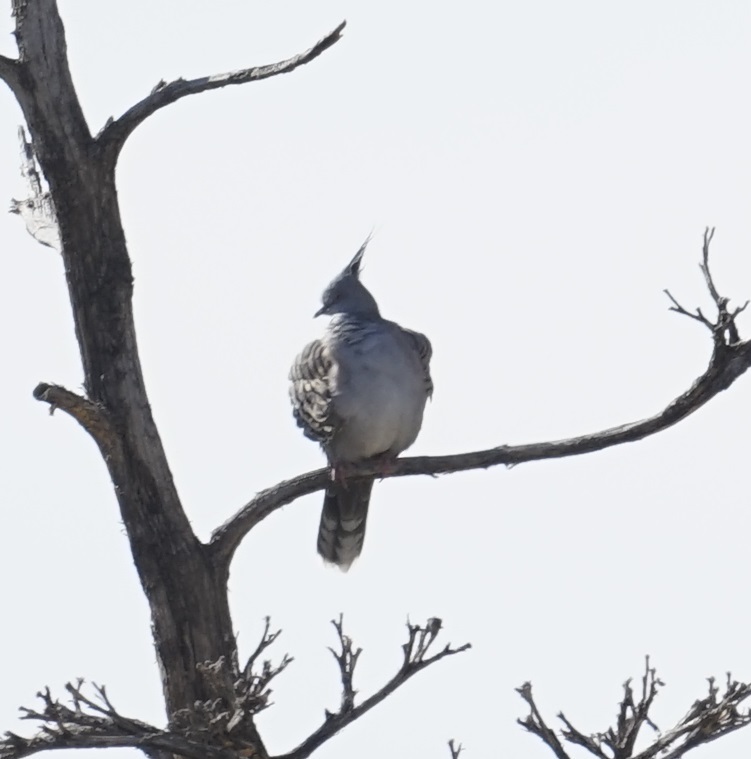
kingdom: Animalia
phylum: Chordata
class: Aves
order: Columbiformes
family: Columbidae
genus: Ocyphaps
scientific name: Ocyphaps lophotes
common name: Crested pigeon
